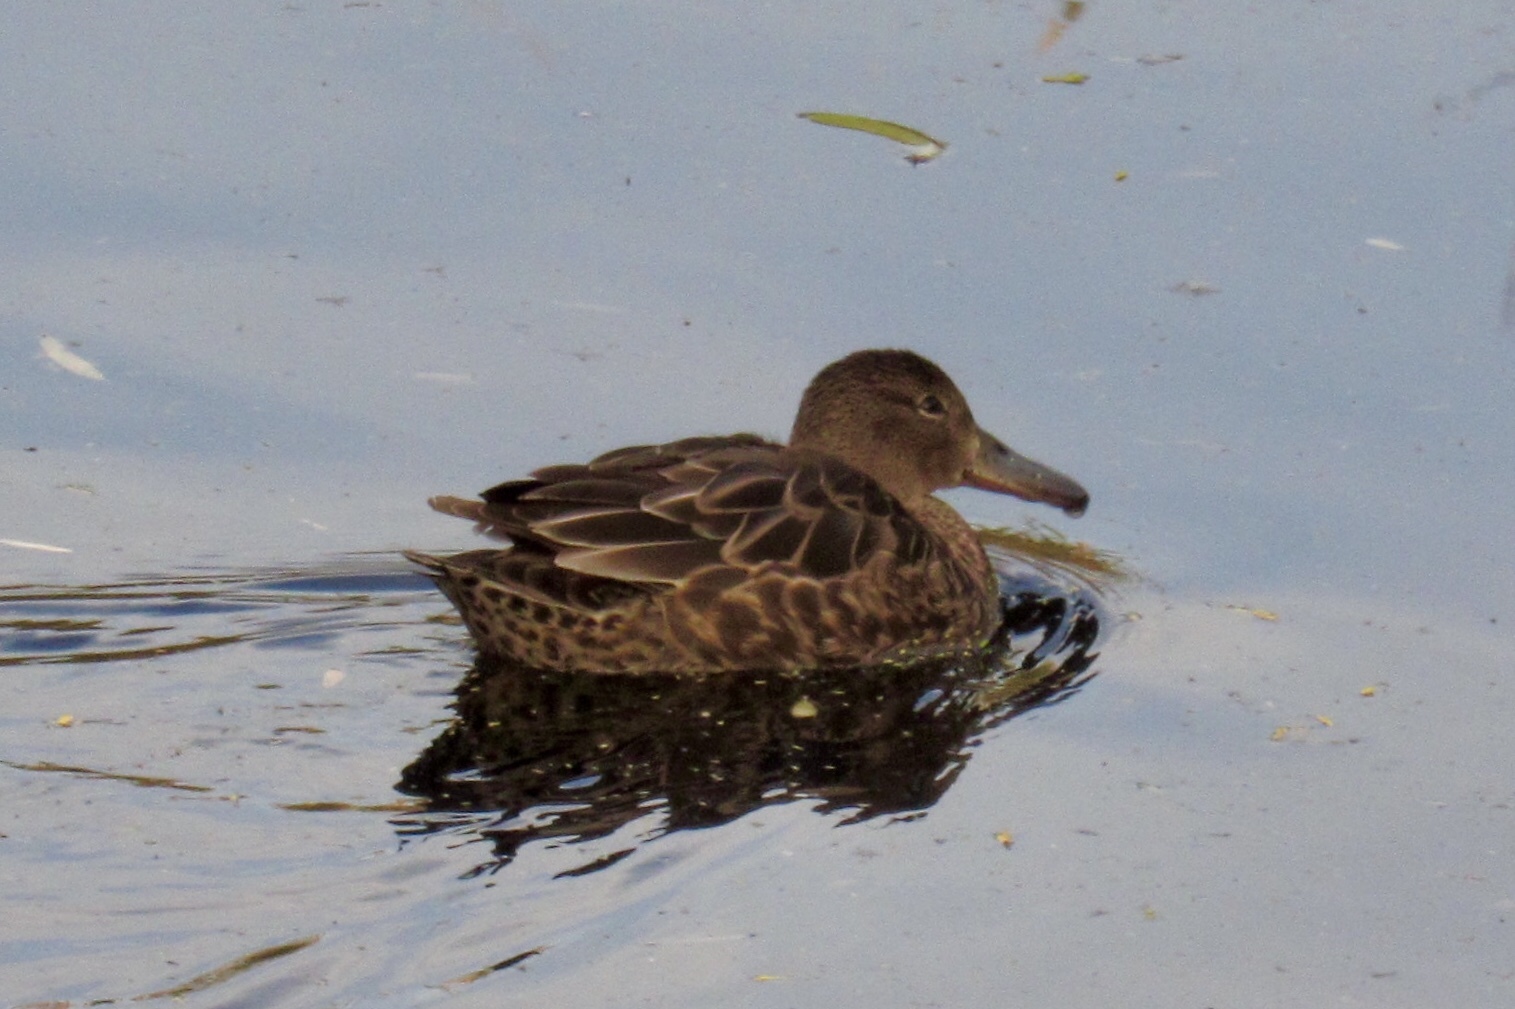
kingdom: Animalia
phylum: Chordata
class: Aves
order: Anseriformes
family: Anatidae
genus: Spatula
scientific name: Spatula cyanoptera
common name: Cinnamon teal
